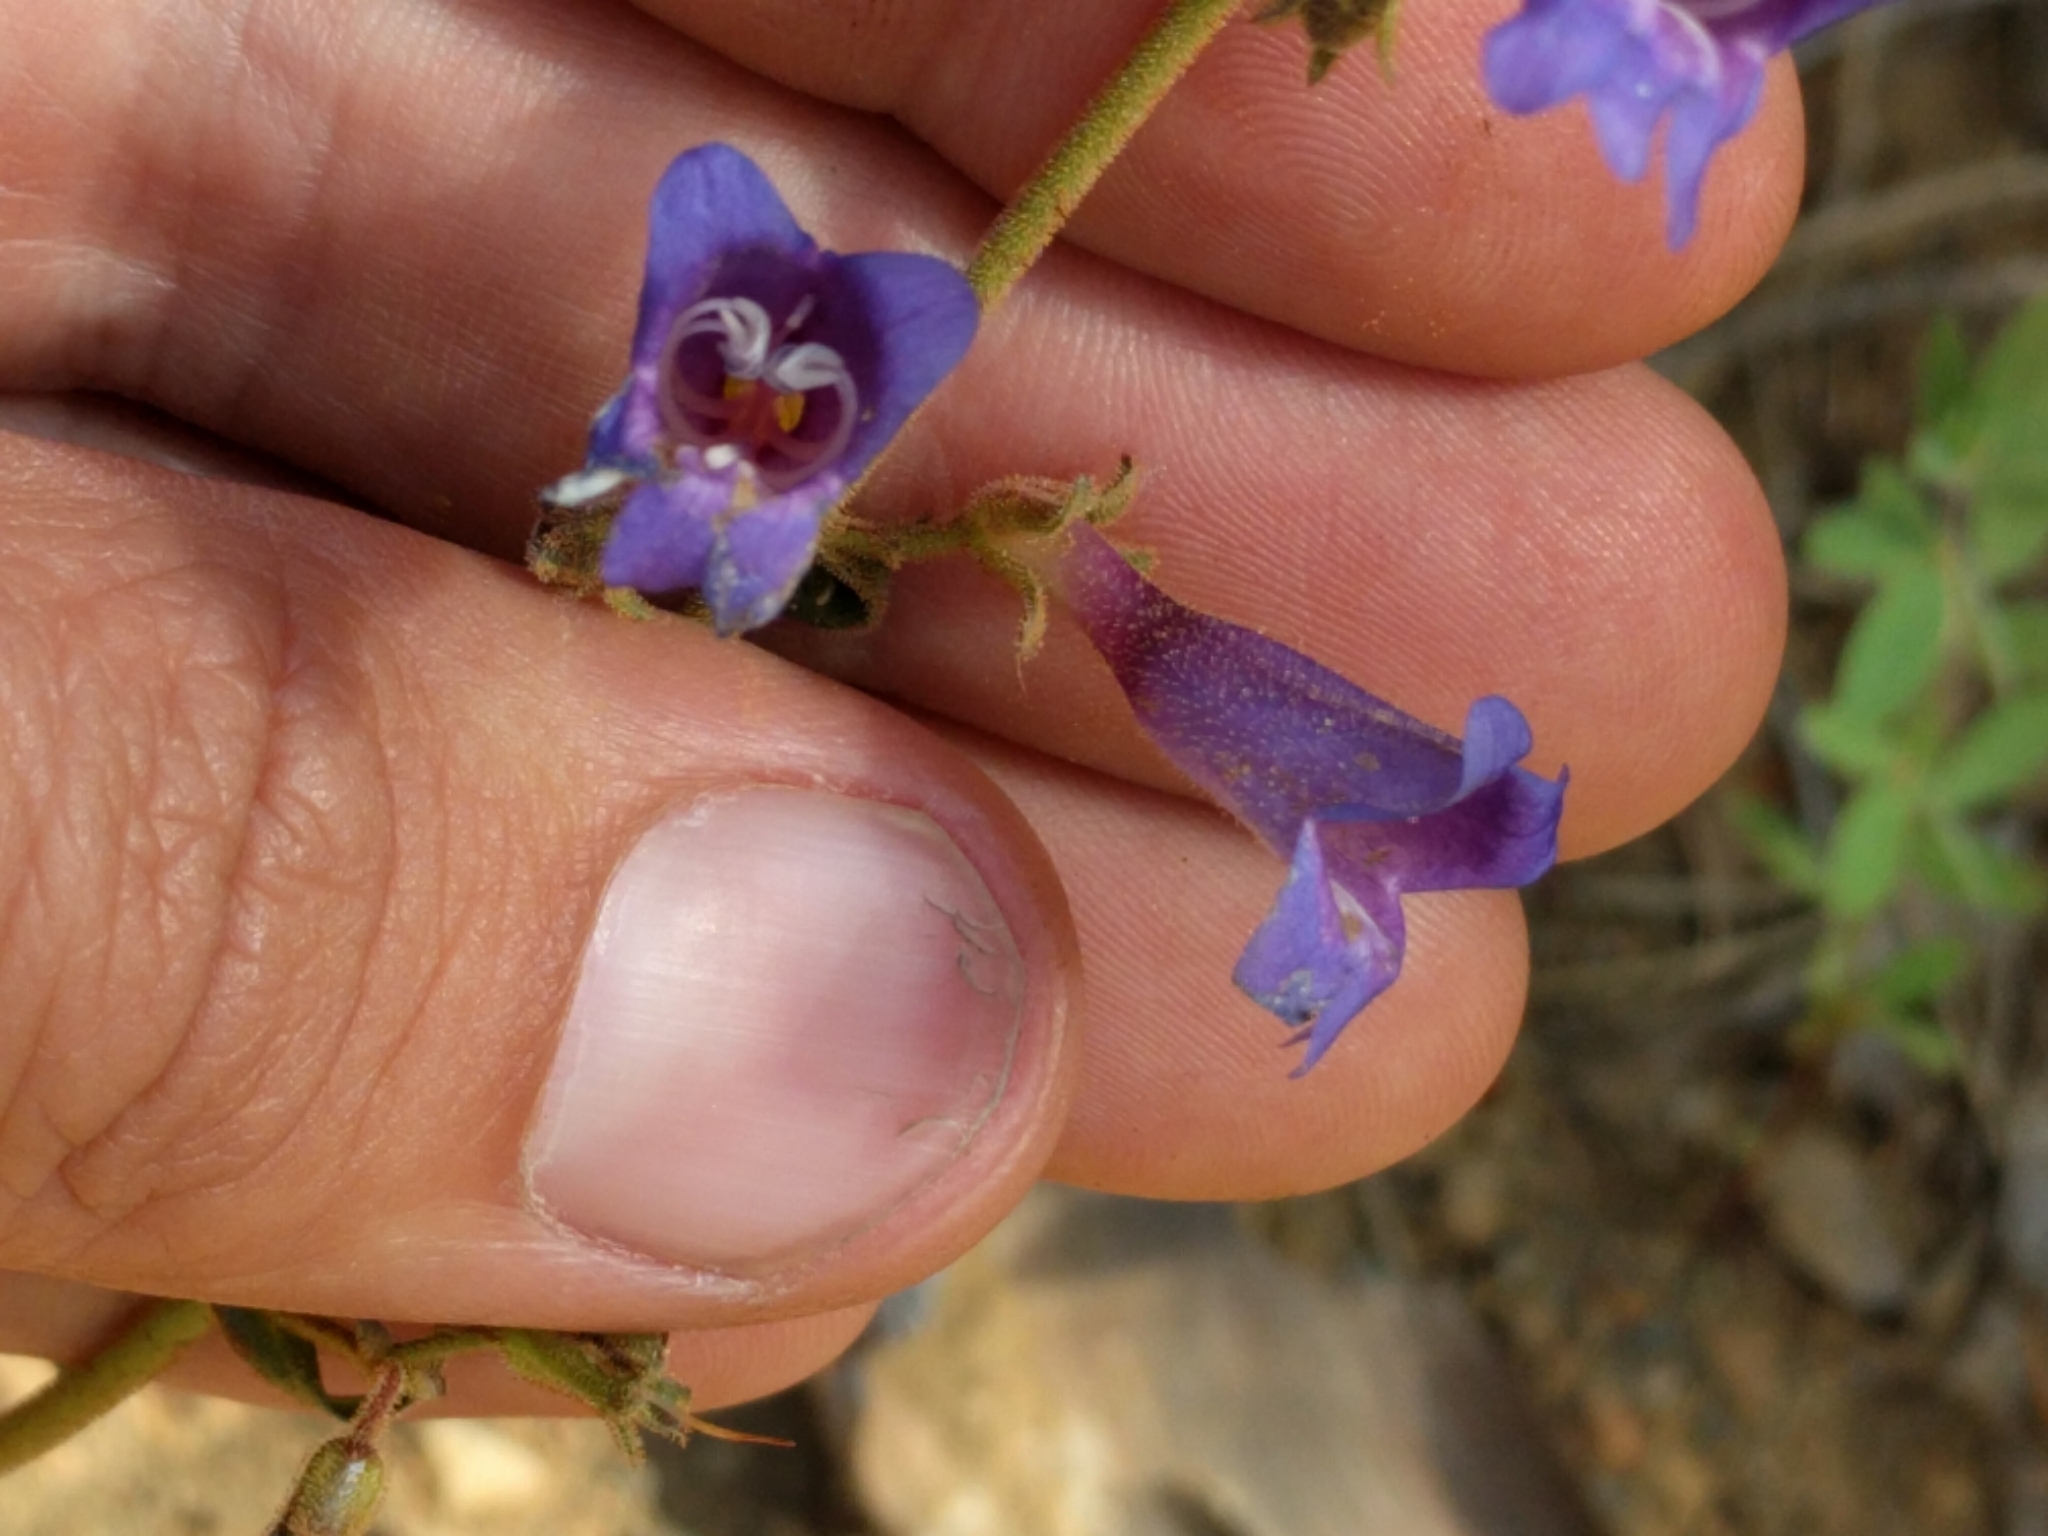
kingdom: Plantae
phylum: Tracheophyta
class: Magnoliopsida
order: Lamiales
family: Plantaginaceae
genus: Penstemon
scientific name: Penstemon roezlii
